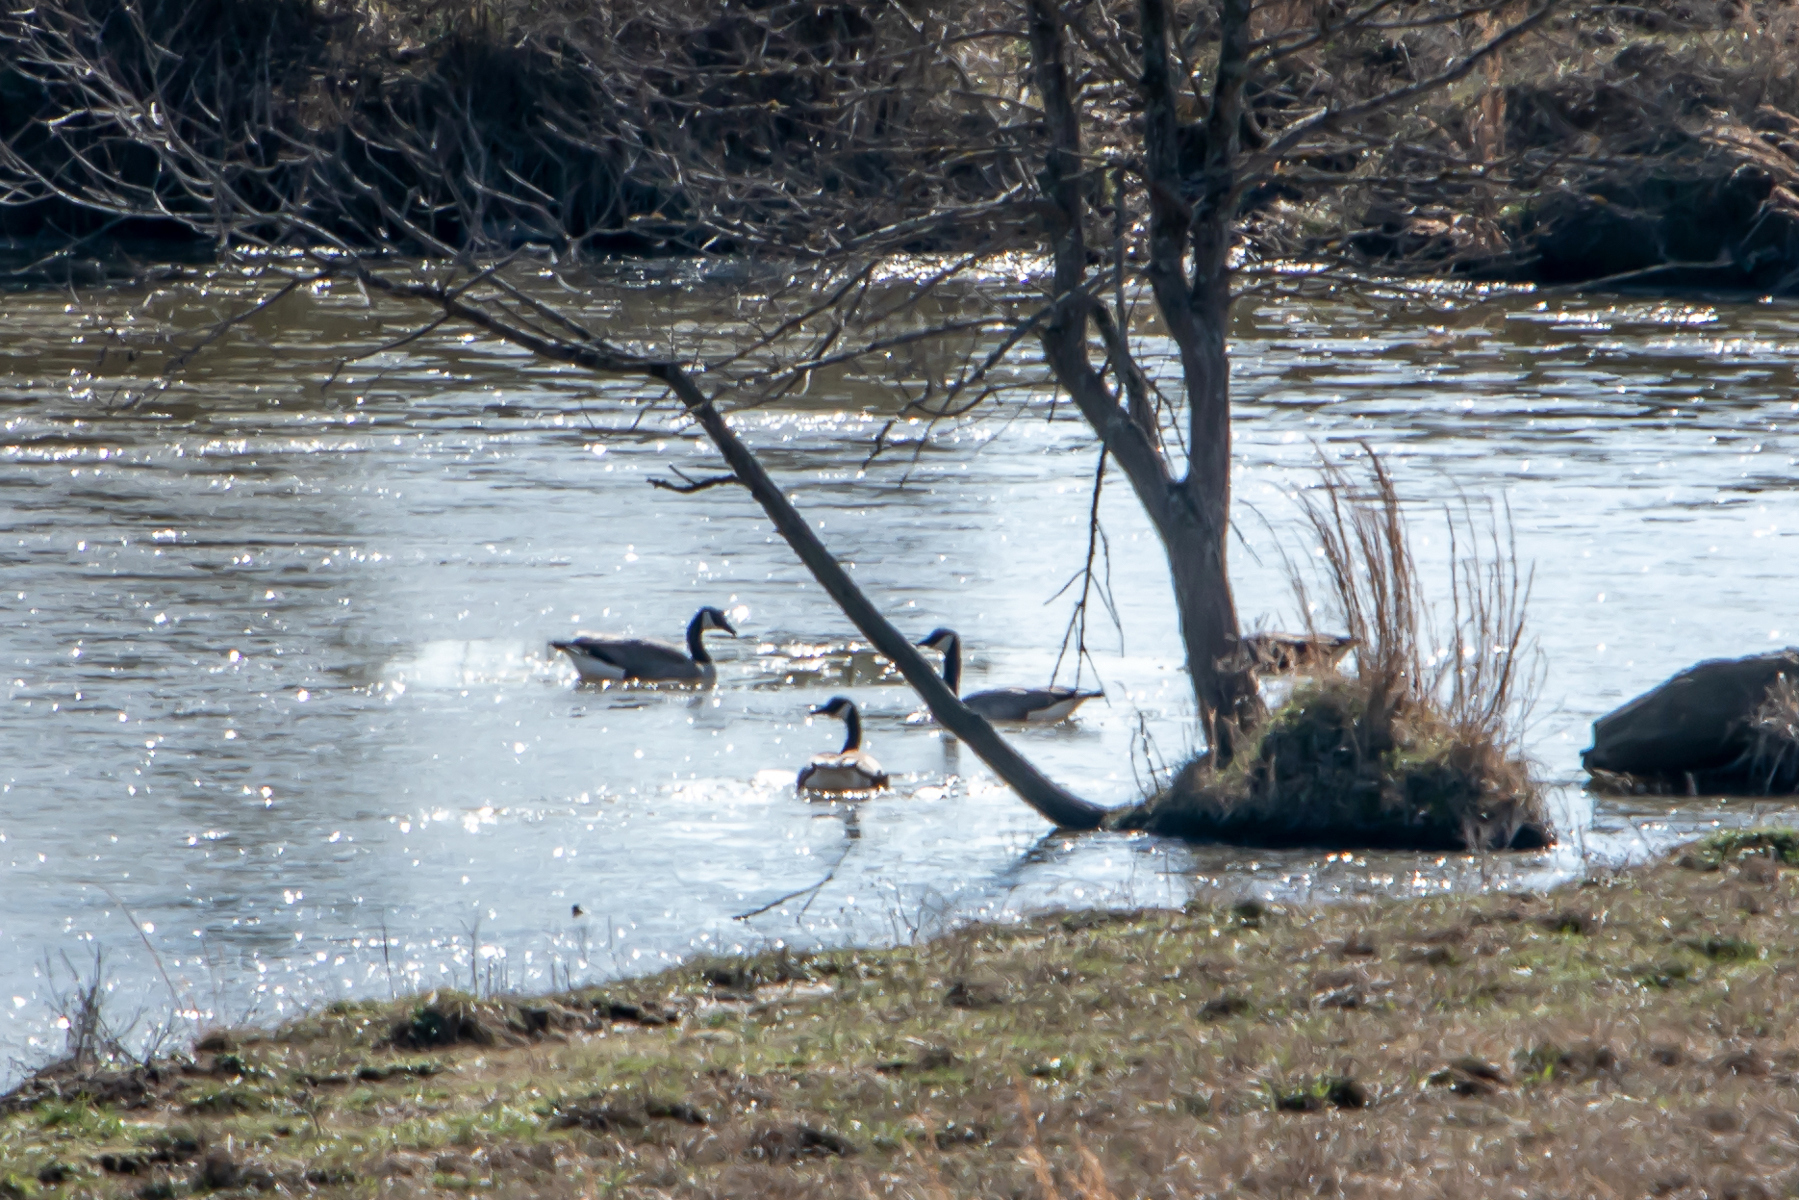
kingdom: Animalia
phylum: Chordata
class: Aves
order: Anseriformes
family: Anatidae
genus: Branta
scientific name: Branta canadensis
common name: Canada goose
